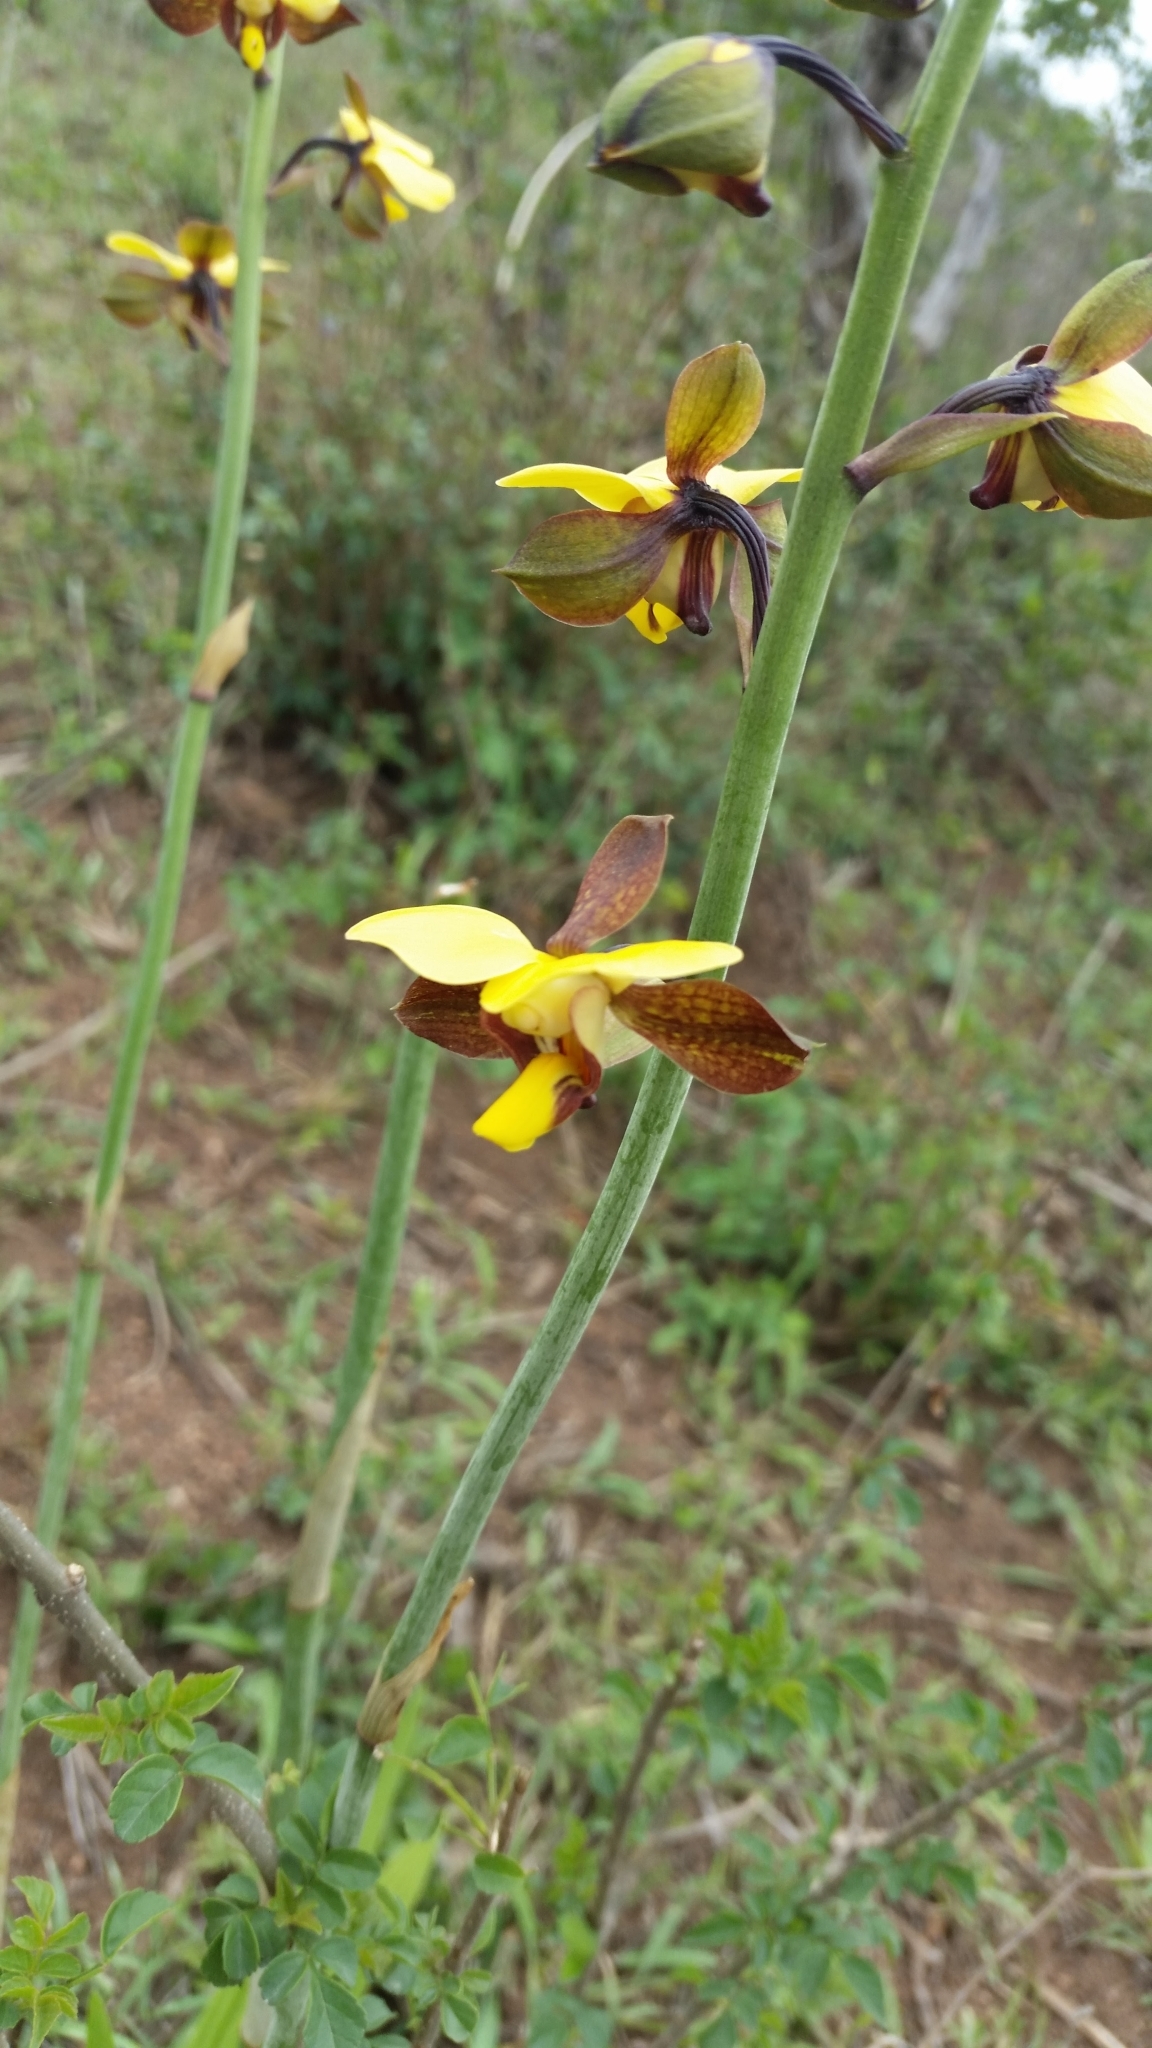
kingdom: Plantae
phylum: Tracheophyta
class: Liliopsida
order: Asparagales
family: Orchidaceae
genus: Eulophia
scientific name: Eulophia streptopetala
